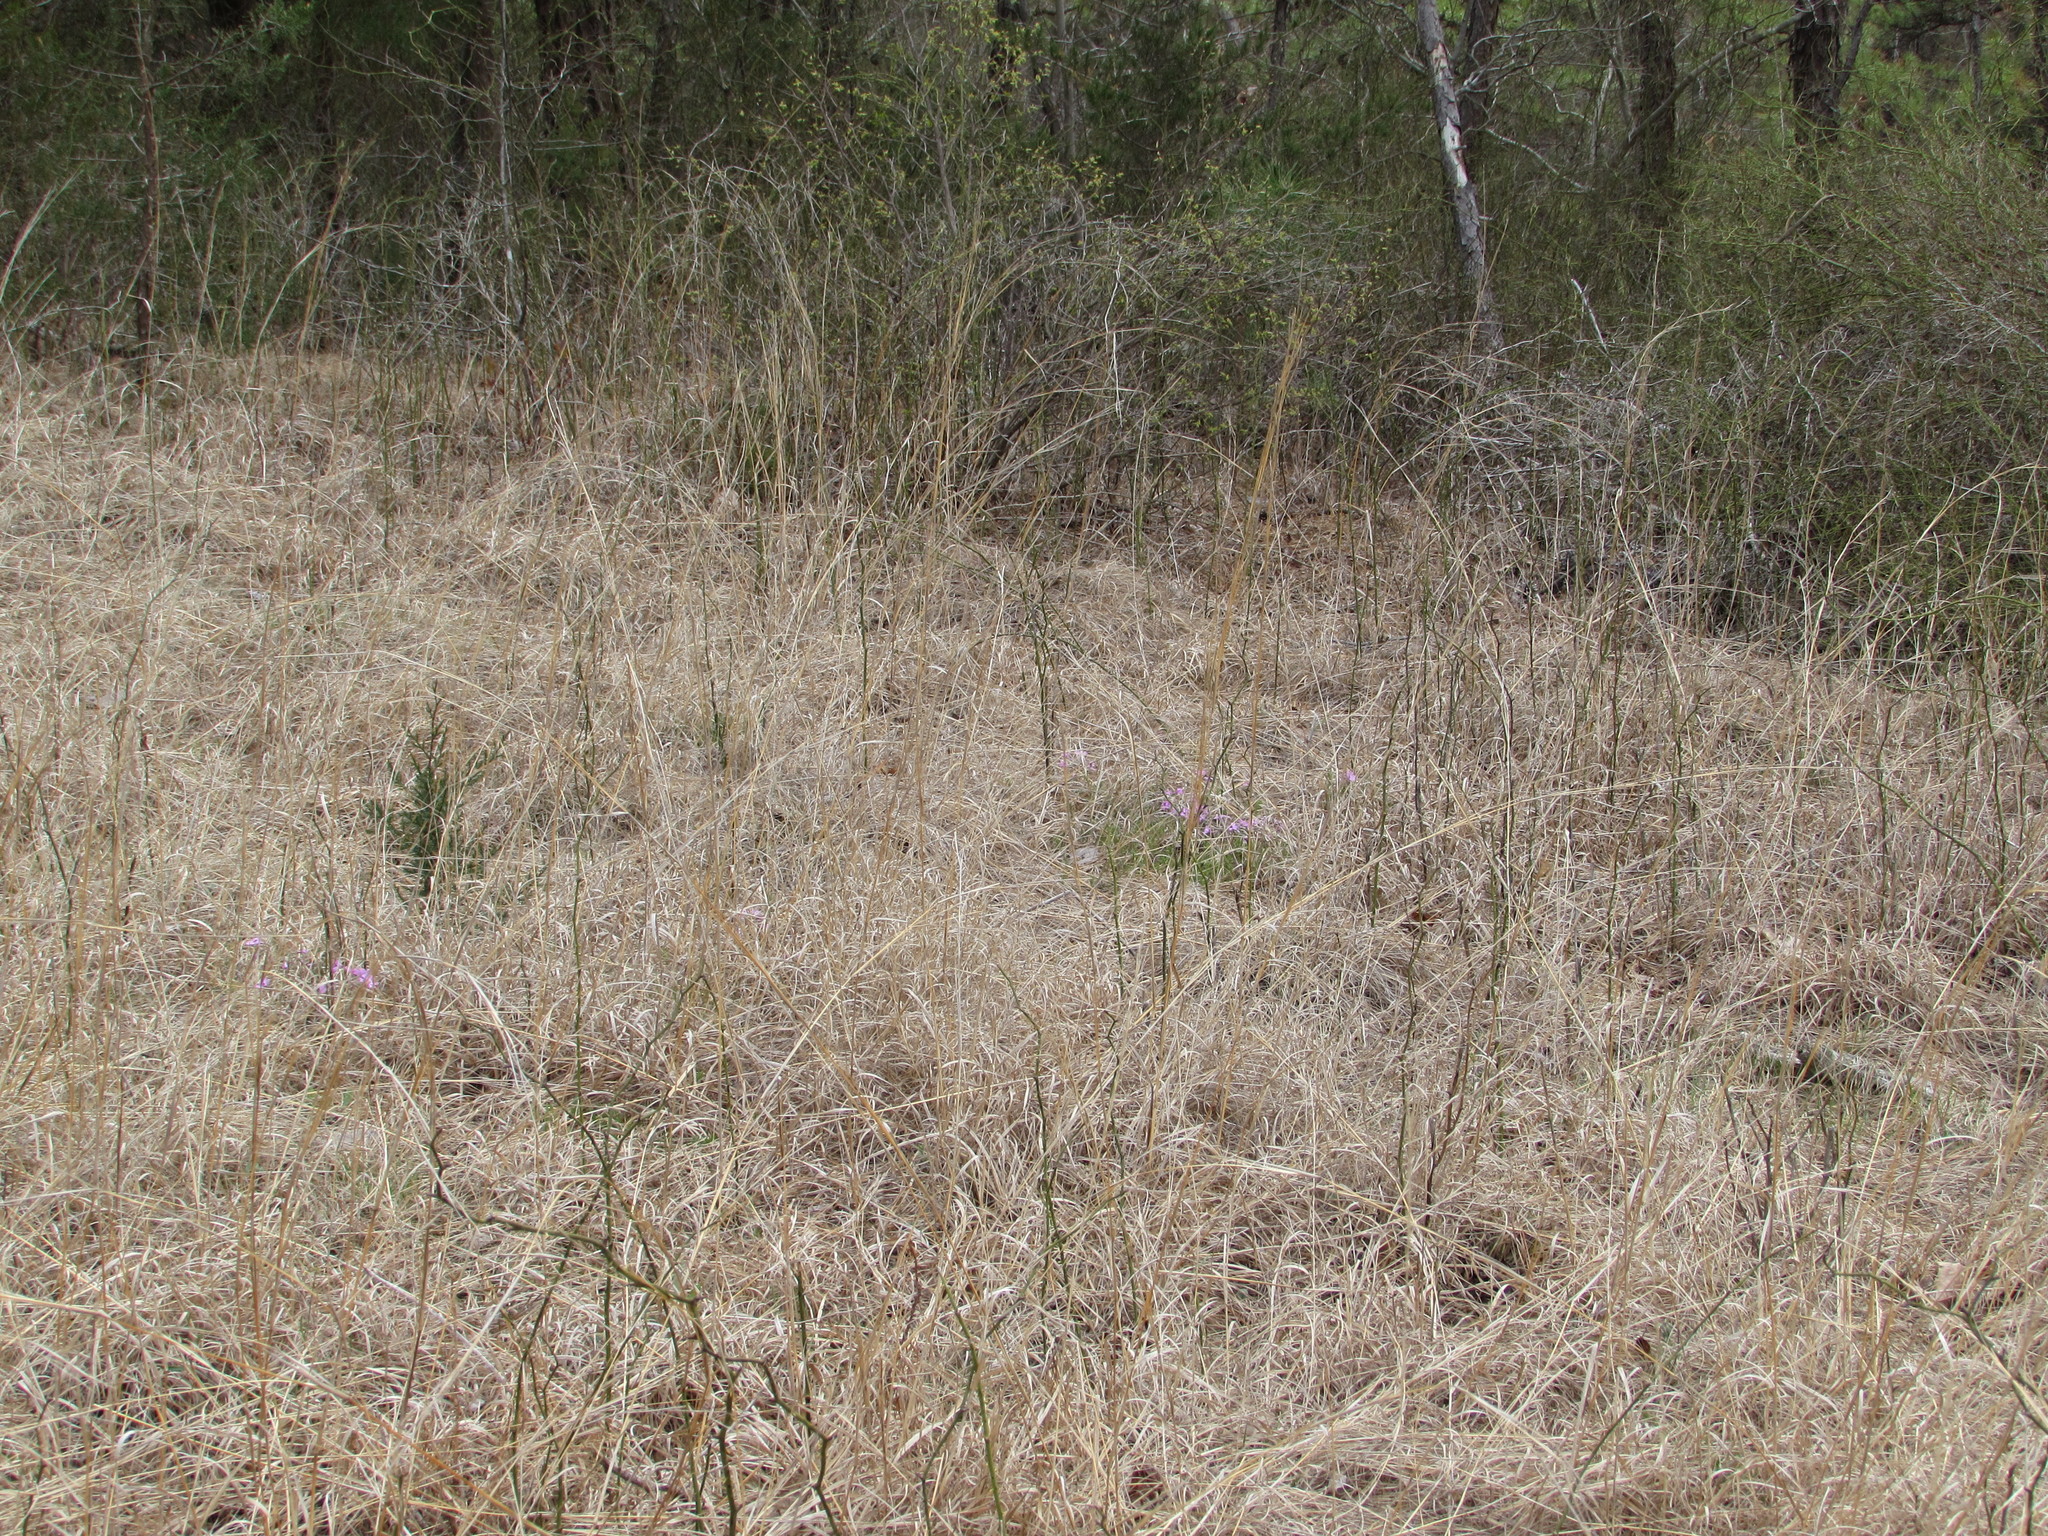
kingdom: Plantae
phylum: Tracheophyta
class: Magnoliopsida
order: Ericales
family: Polemoniaceae
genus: Phlox
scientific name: Phlox subulata
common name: Moss phlox
